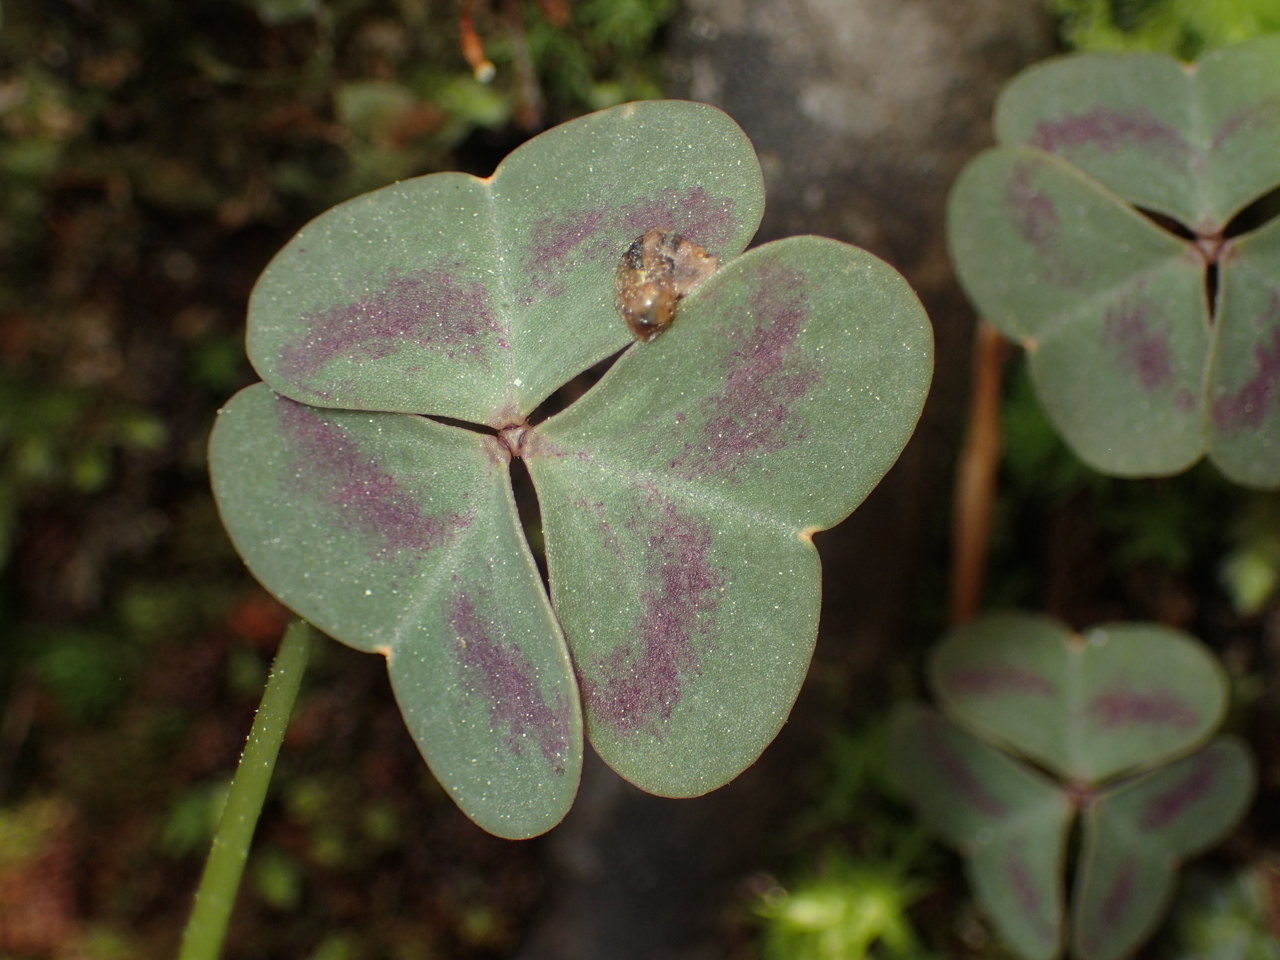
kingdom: Plantae
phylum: Tracheophyta
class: Magnoliopsida
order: Oxalidales
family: Oxalidaceae
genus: Oxalis
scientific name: Oxalis violacea
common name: Violet wood-sorrel
